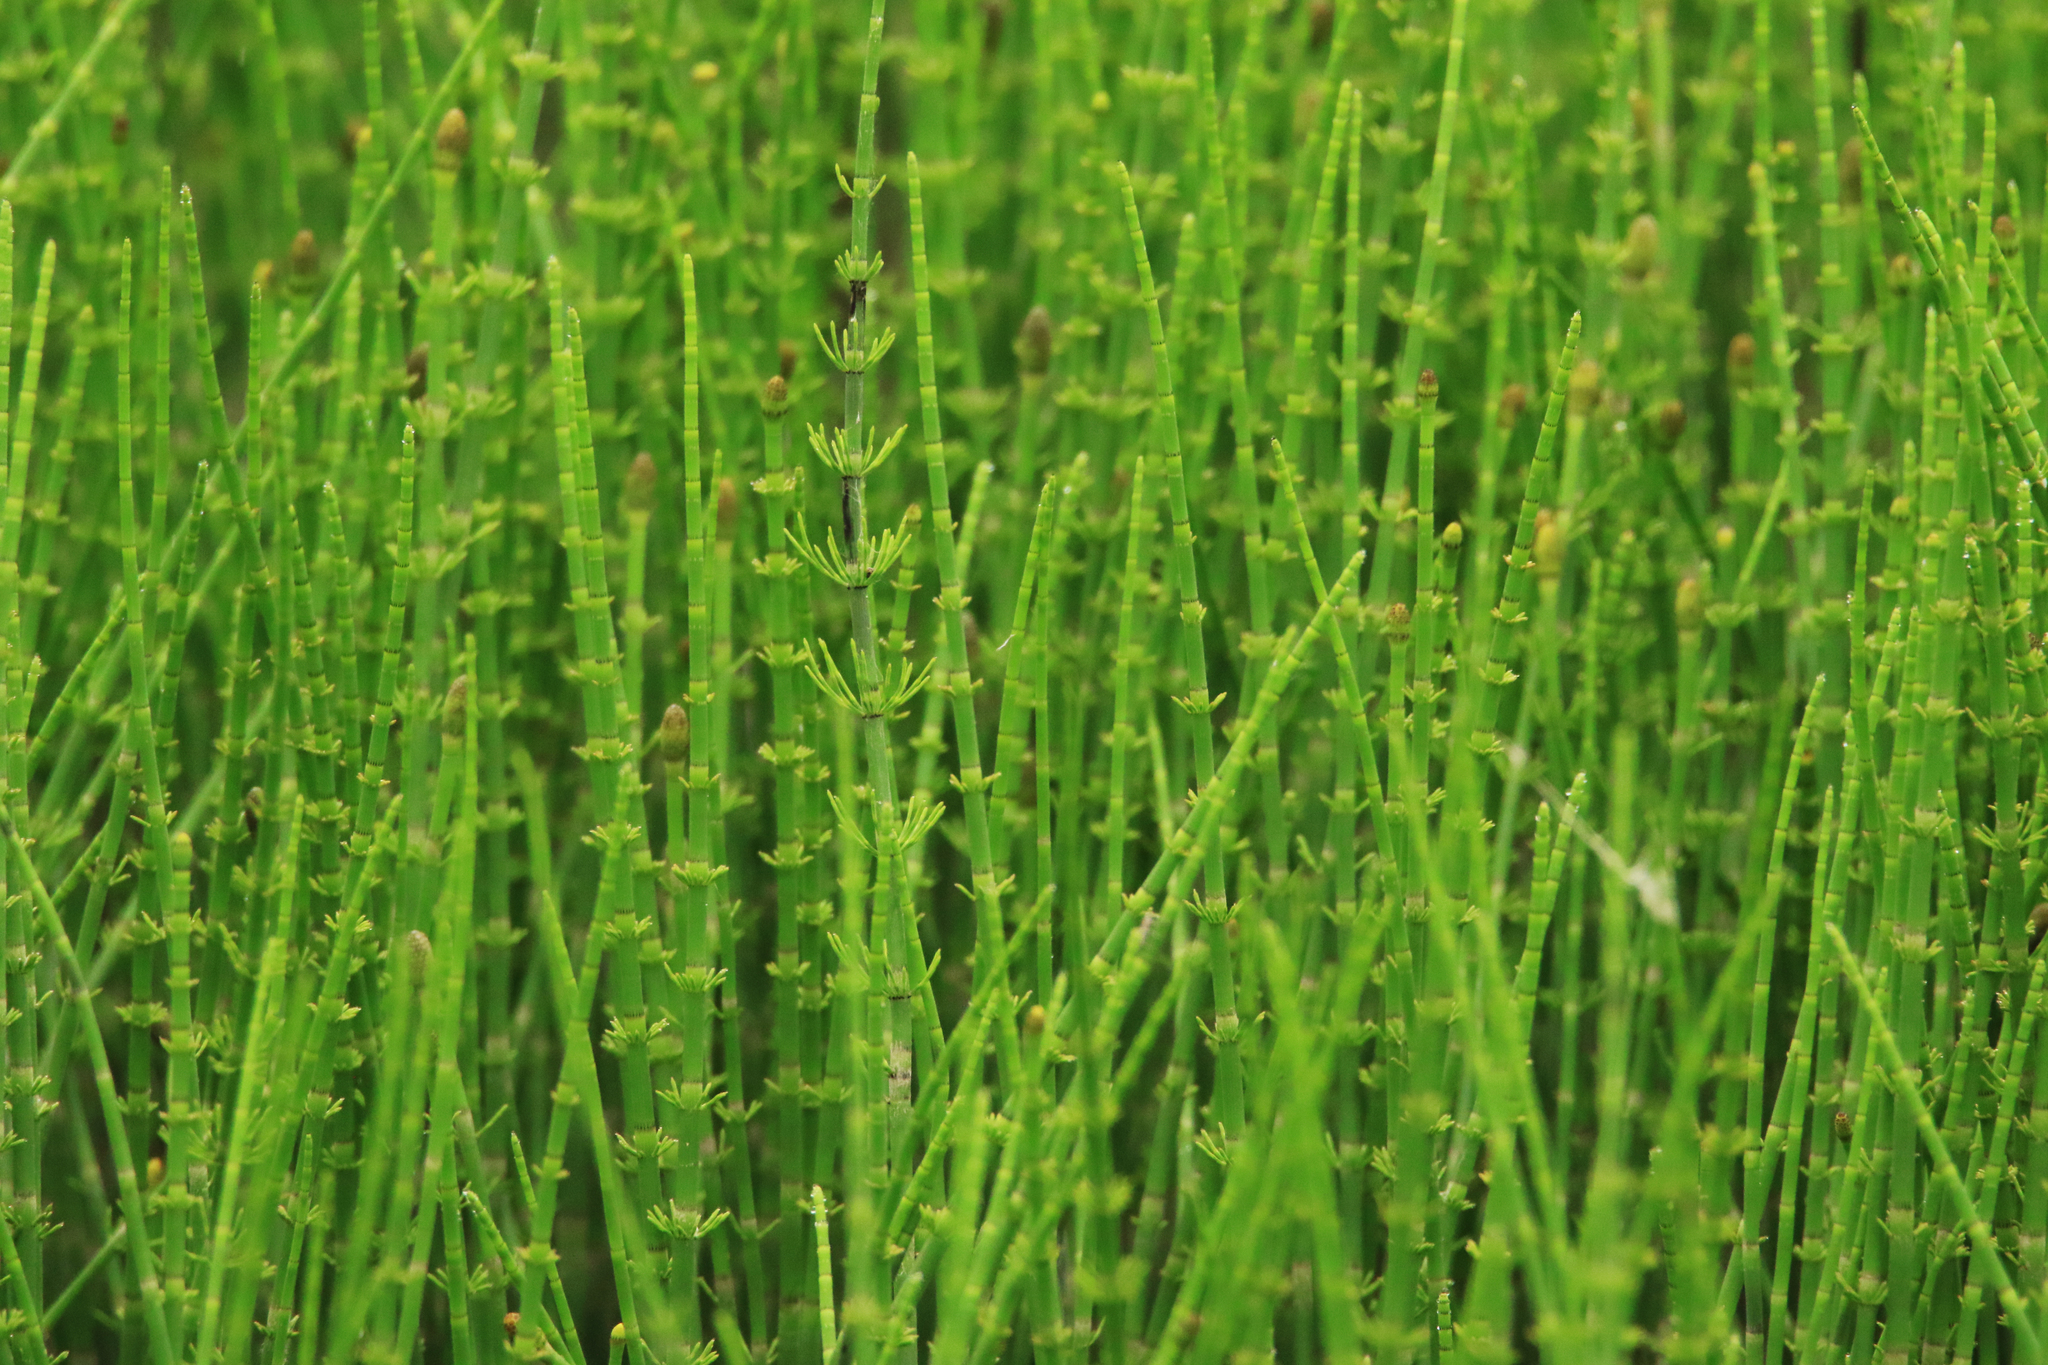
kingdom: Plantae
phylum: Tracheophyta
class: Polypodiopsida
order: Equisetales
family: Equisetaceae
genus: Equisetum
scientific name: Equisetum fluviatile
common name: Water horsetail
